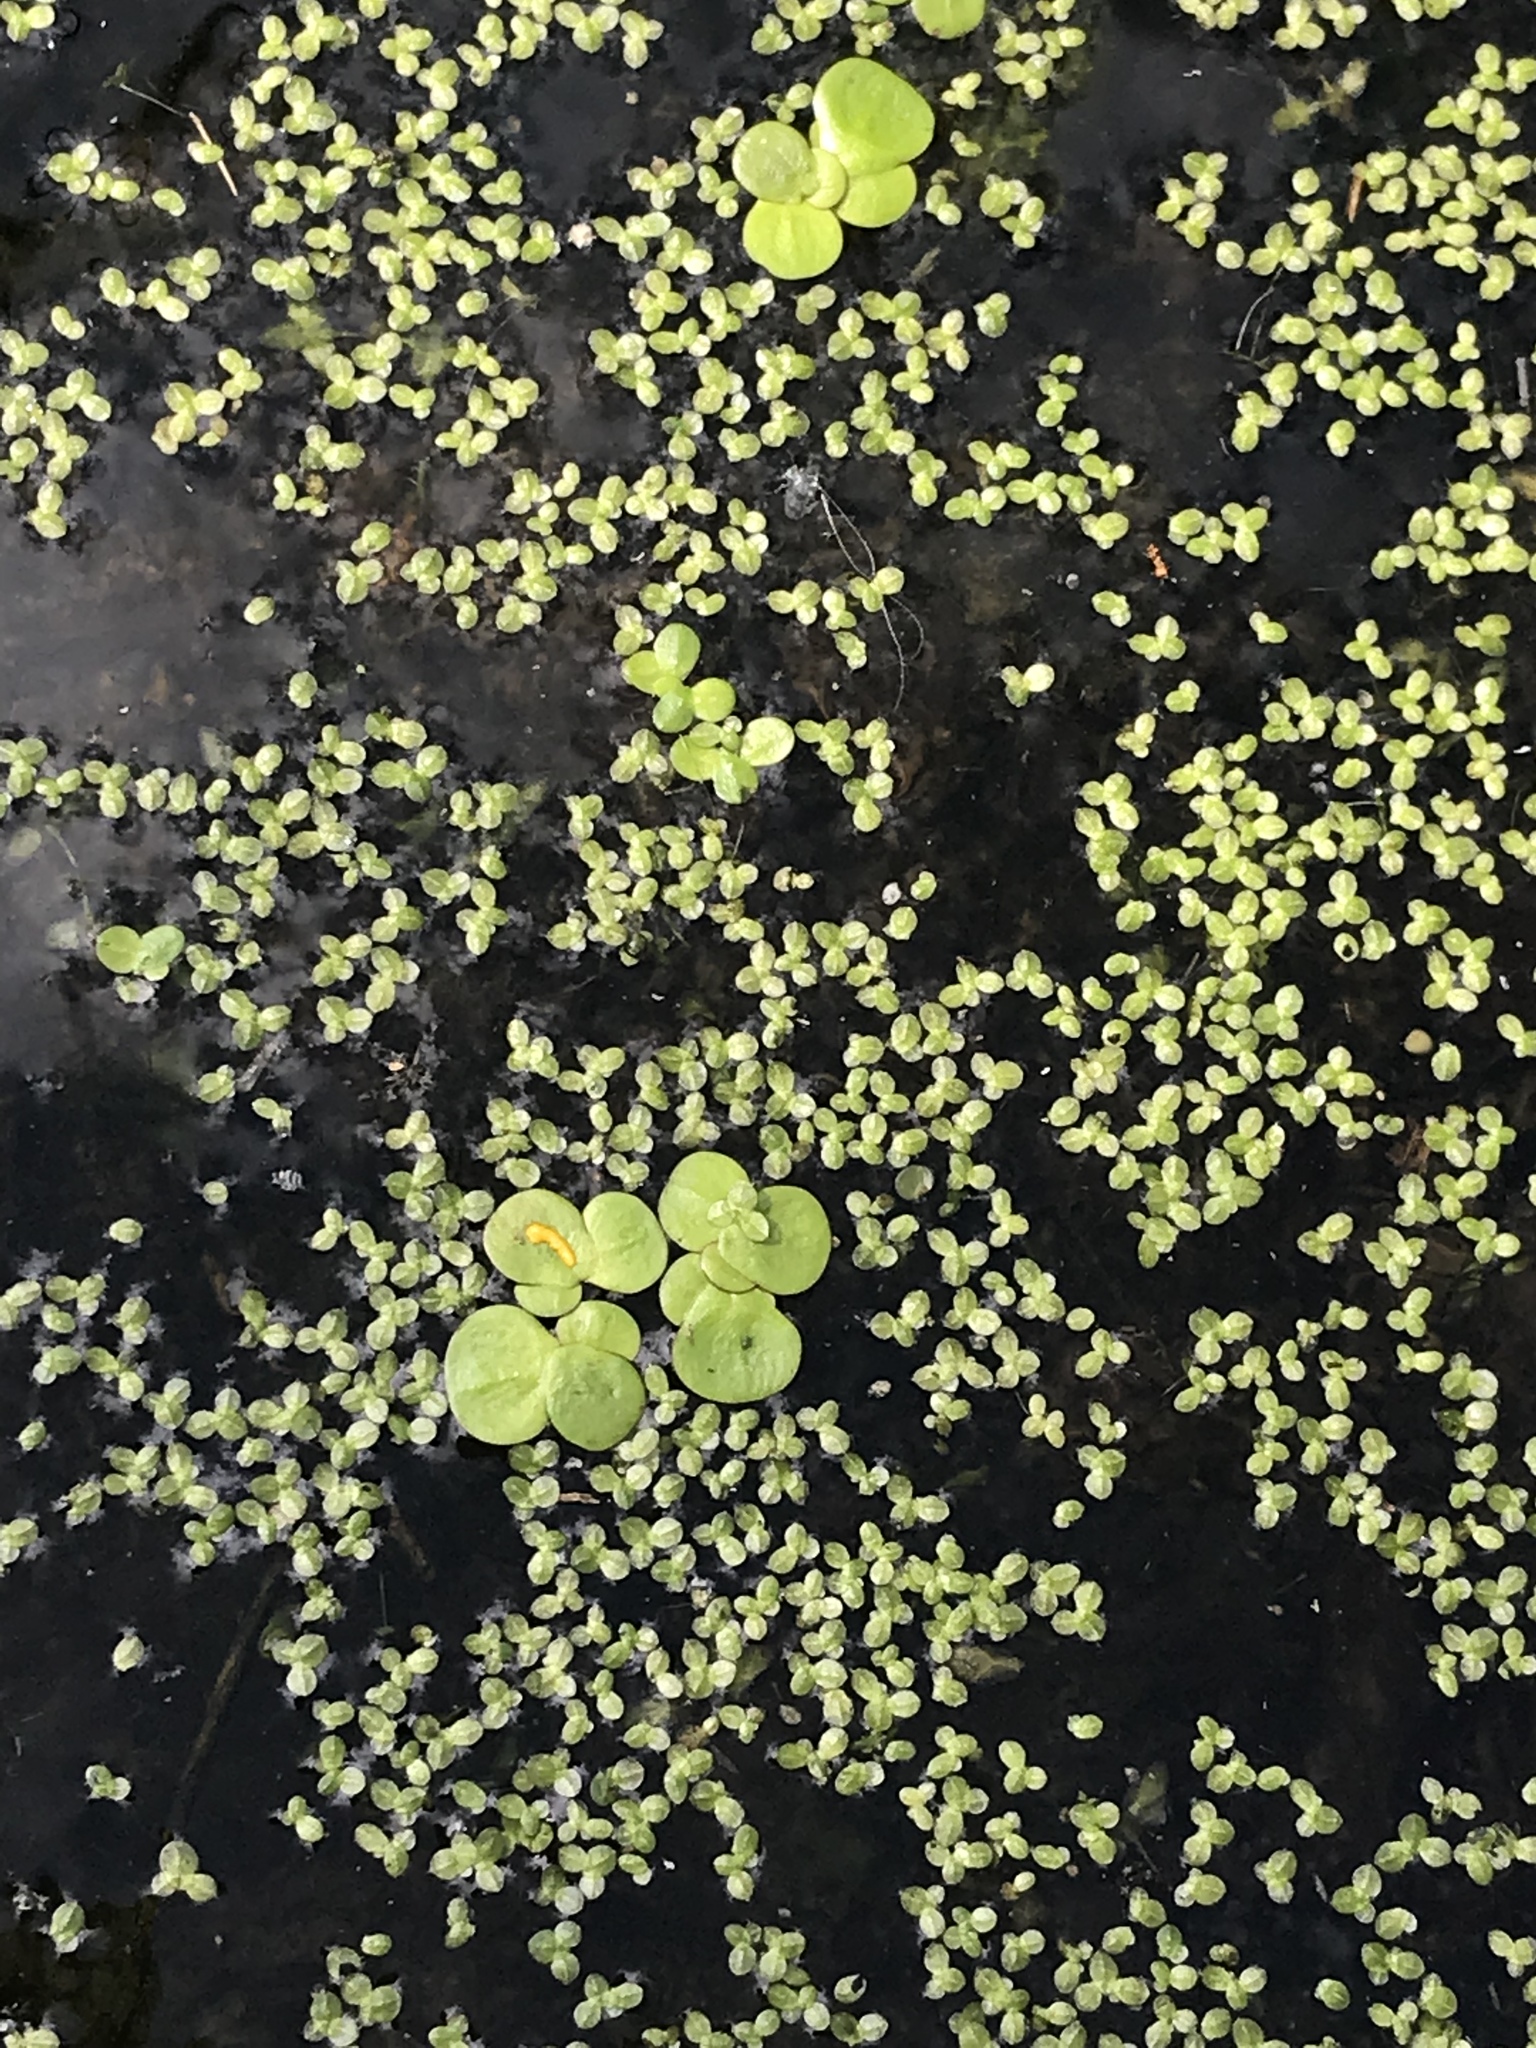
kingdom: Plantae
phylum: Tracheophyta
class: Liliopsida
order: Alismatales
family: Araceae
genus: Spirodela
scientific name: Spirodela polyrhiza
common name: Great duckweed
